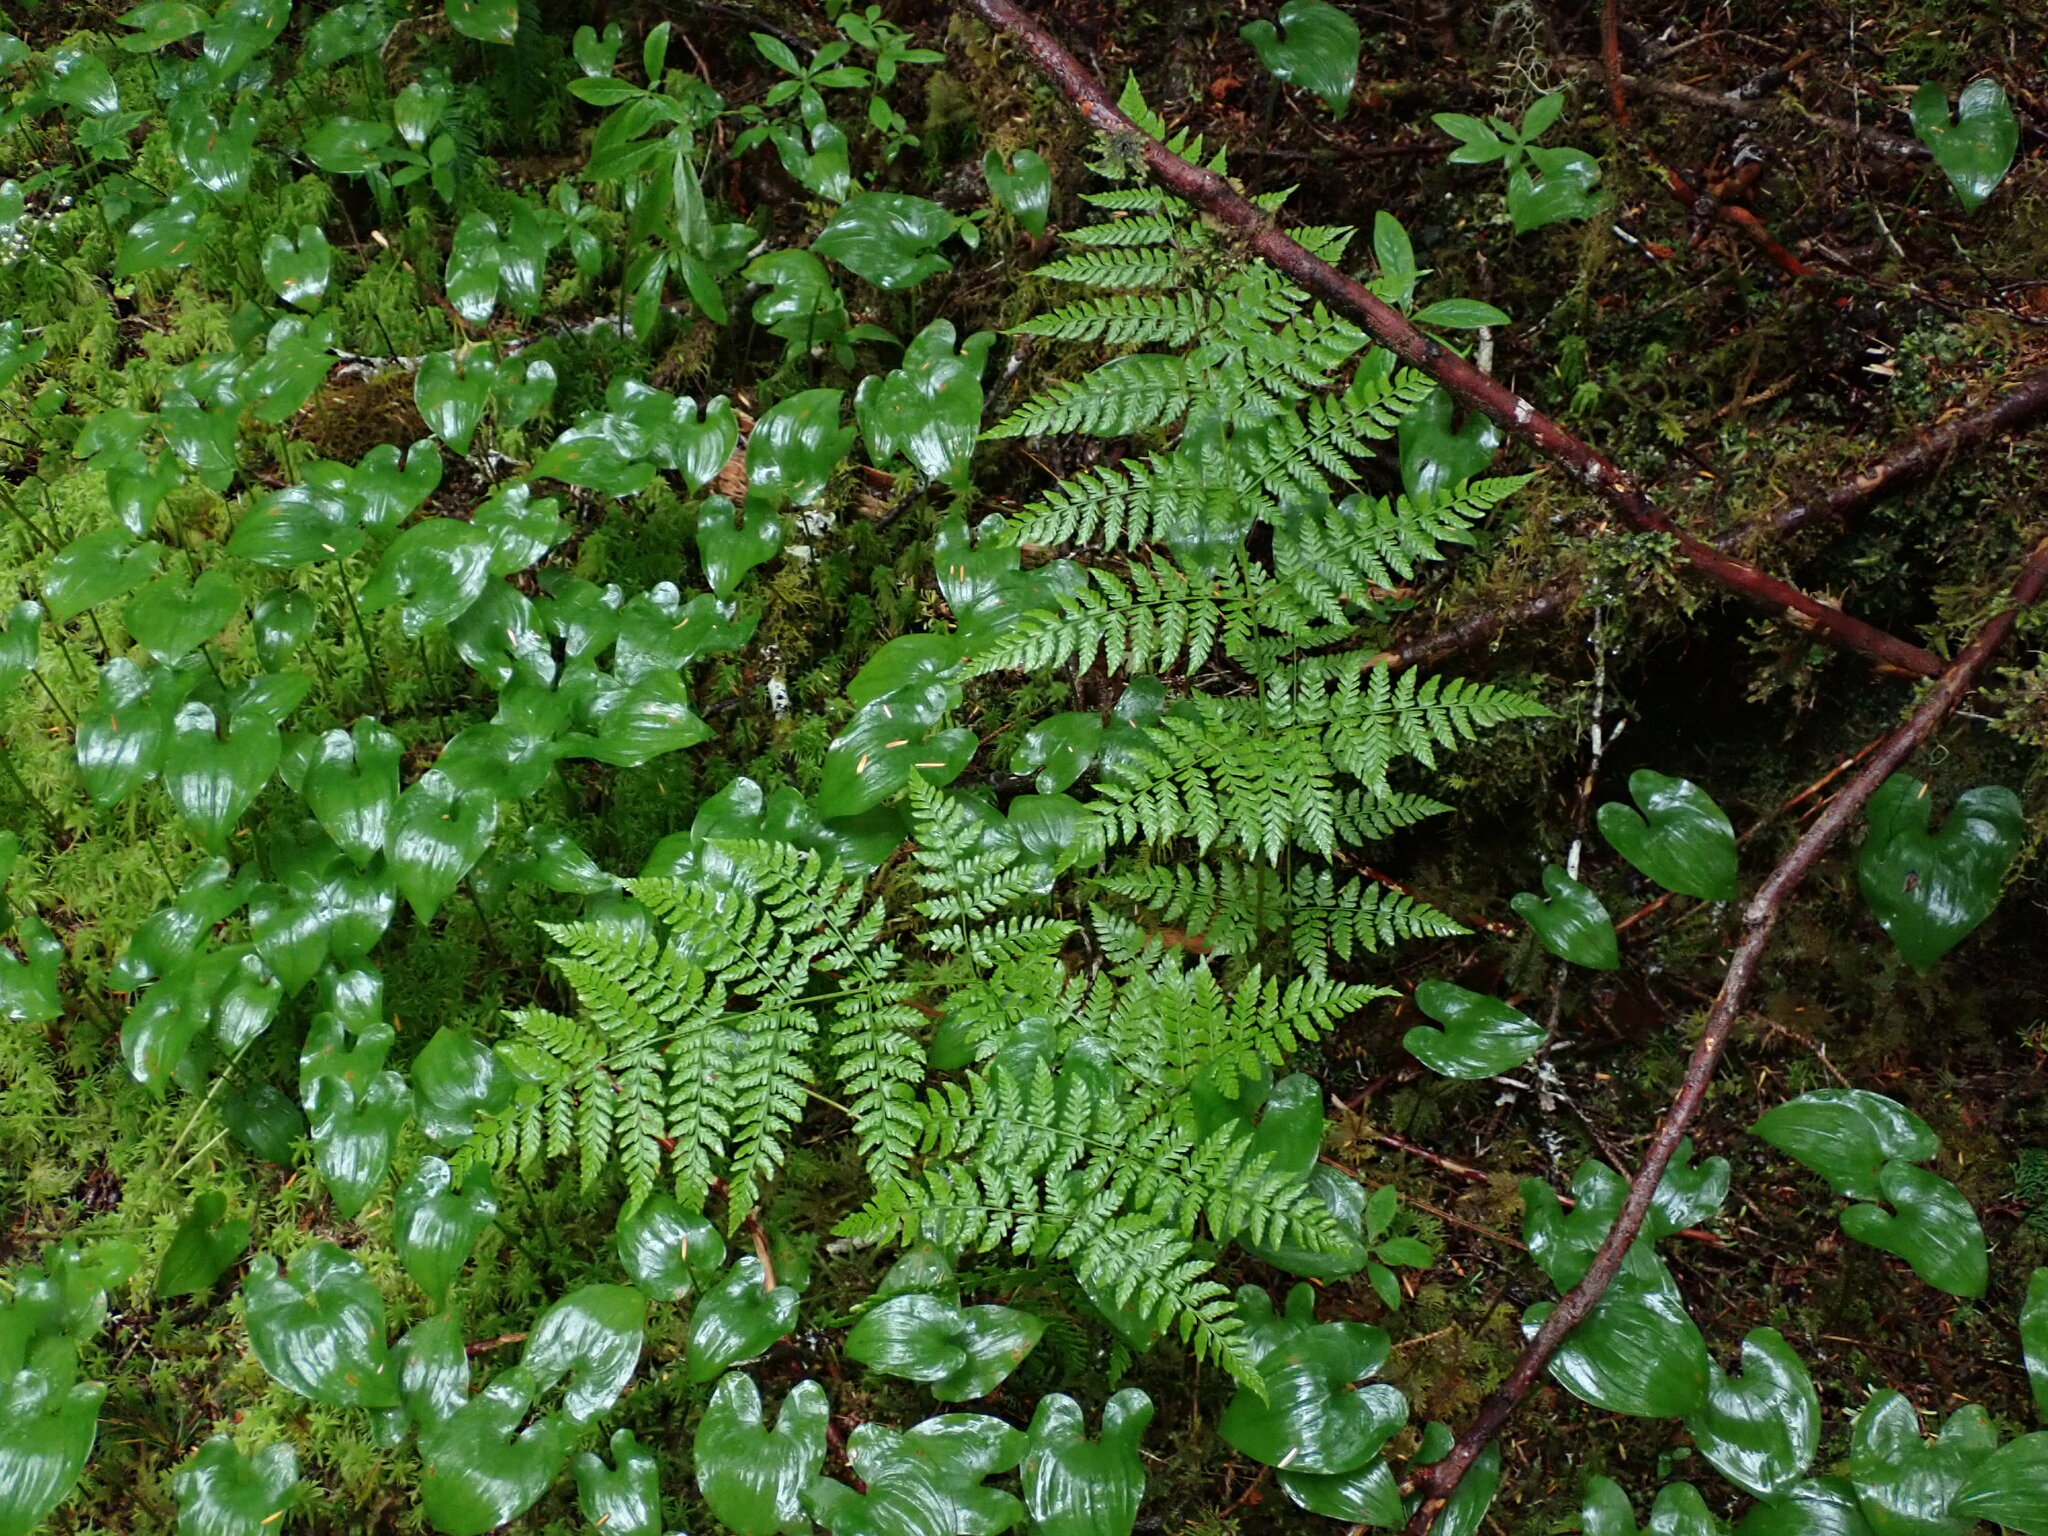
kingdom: Plantae
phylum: Tracheophyta
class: Polypodiopsida
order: Polypodiales
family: Dryopteridaceae
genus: Dryopteris
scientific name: Dryopteris expansa
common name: Northern buckler fern
